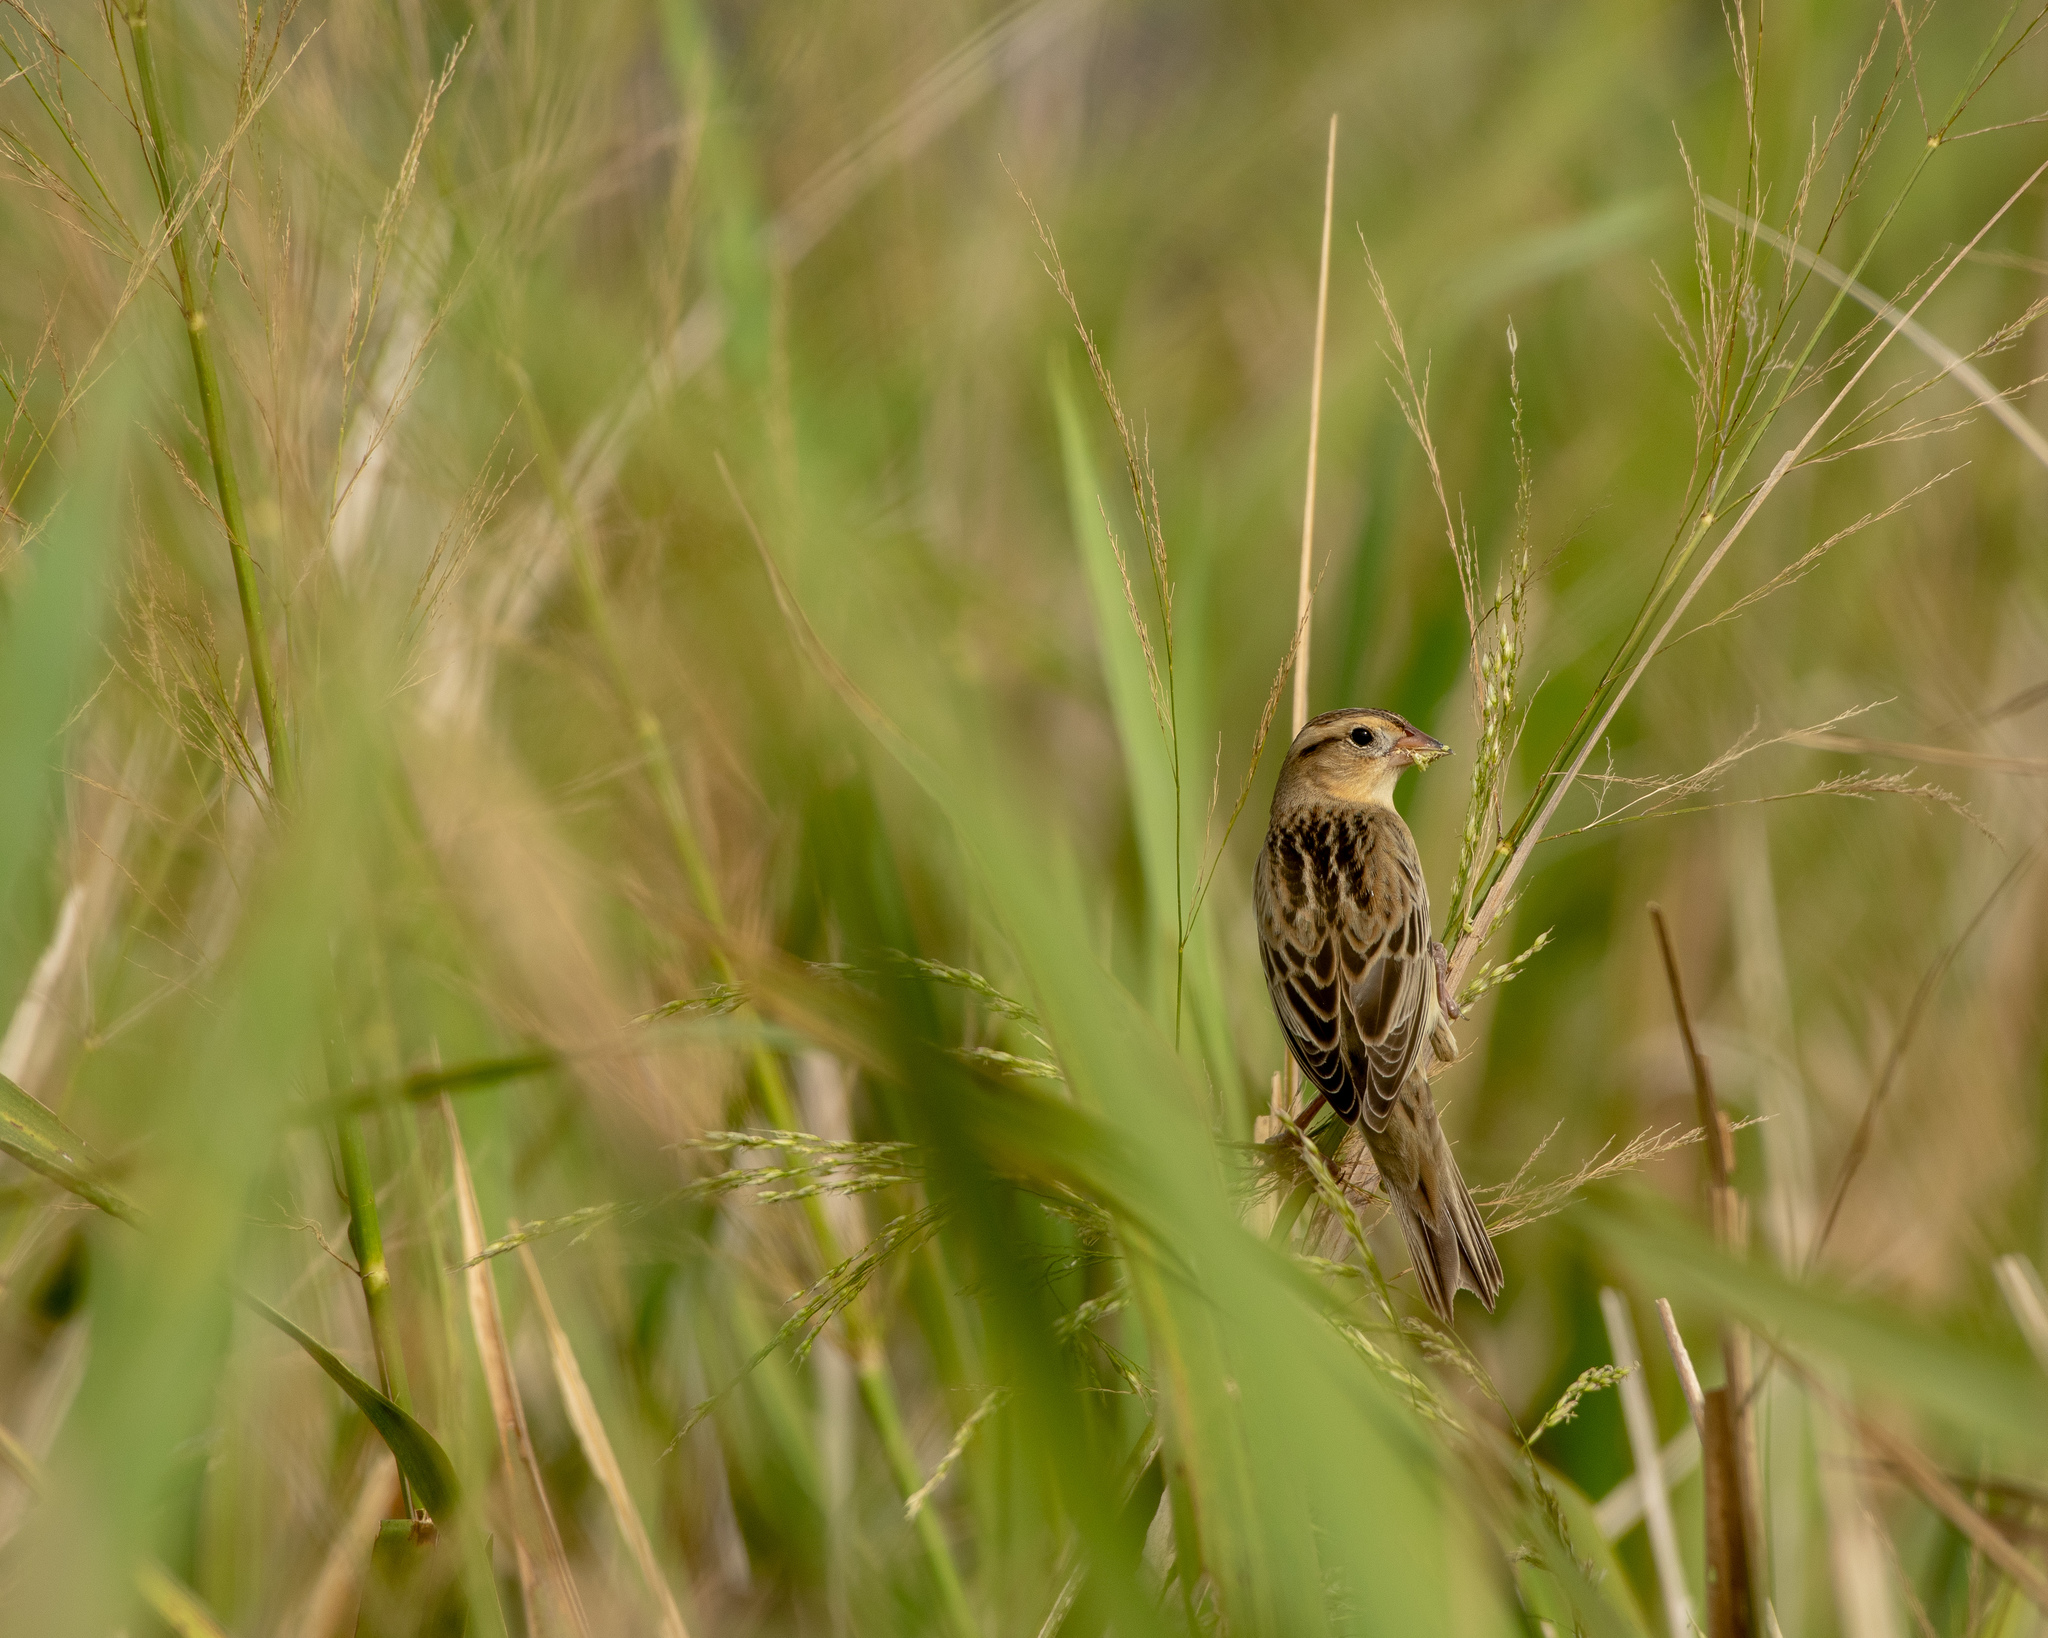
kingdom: Animalia
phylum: Chordata
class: Aves
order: Passeriformes
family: Icteridae
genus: Dolichonyx
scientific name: Dolichonyx oryzivorus
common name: Bobolink
